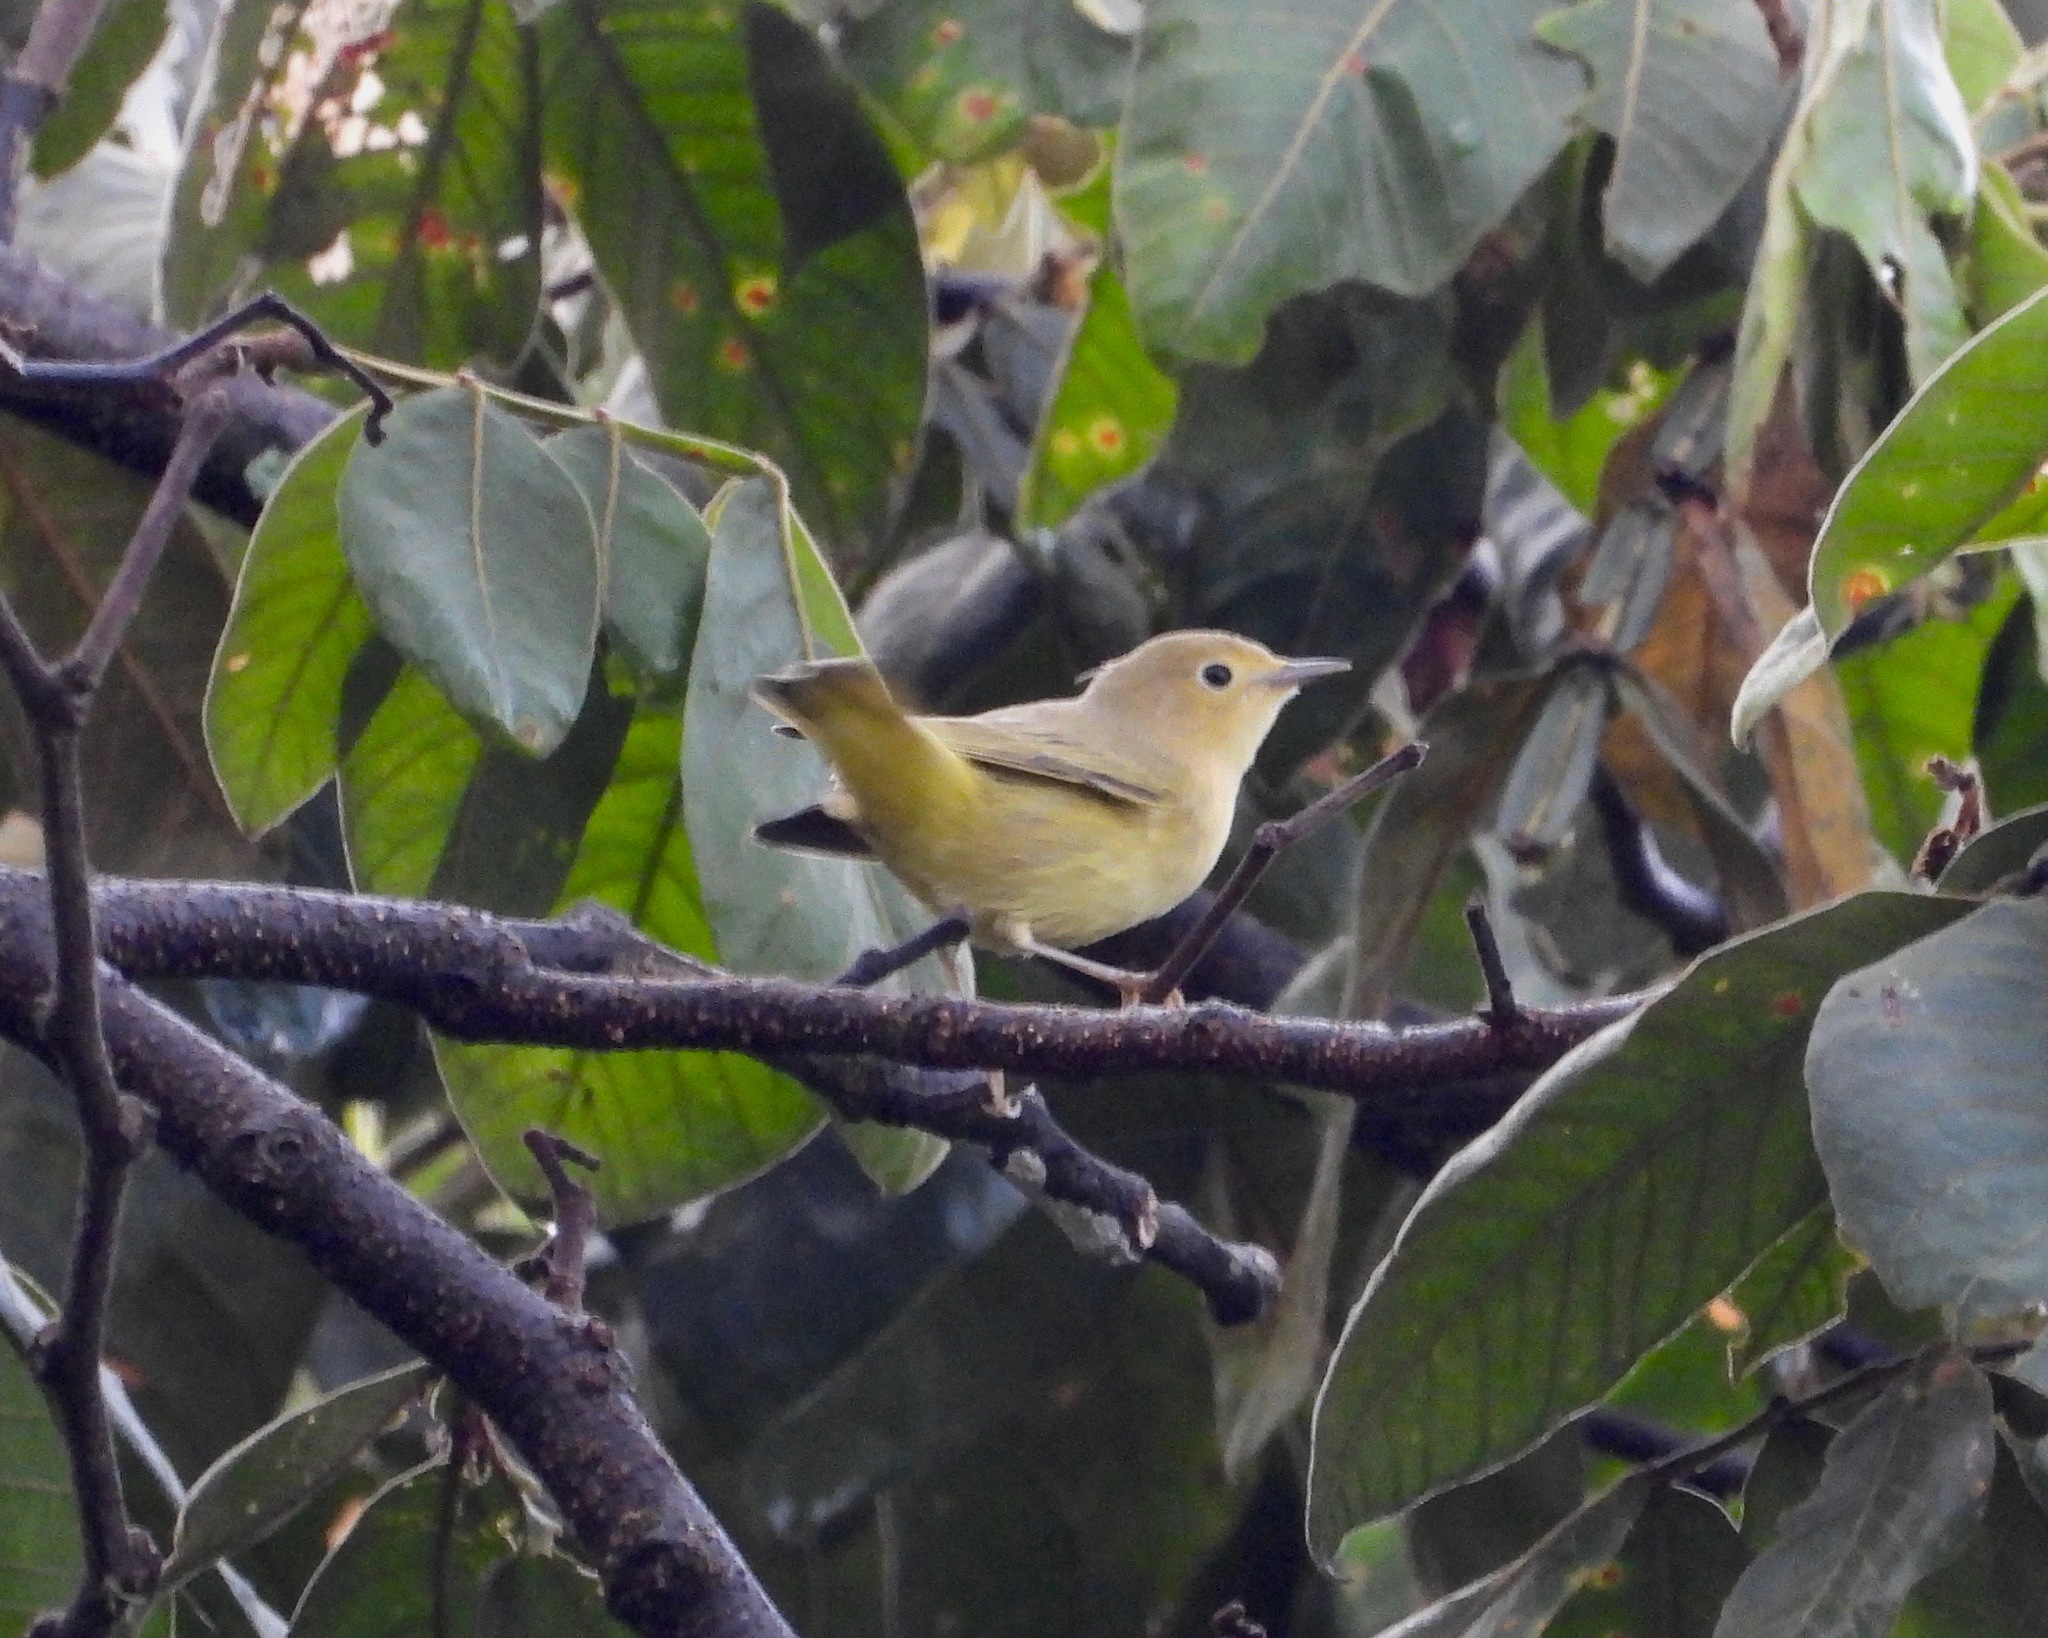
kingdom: Animalia
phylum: Chordata
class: Aves
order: Passeriformes
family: Parulidae
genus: Setophaga
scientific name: Setophaga petechia
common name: Yellow warbler
